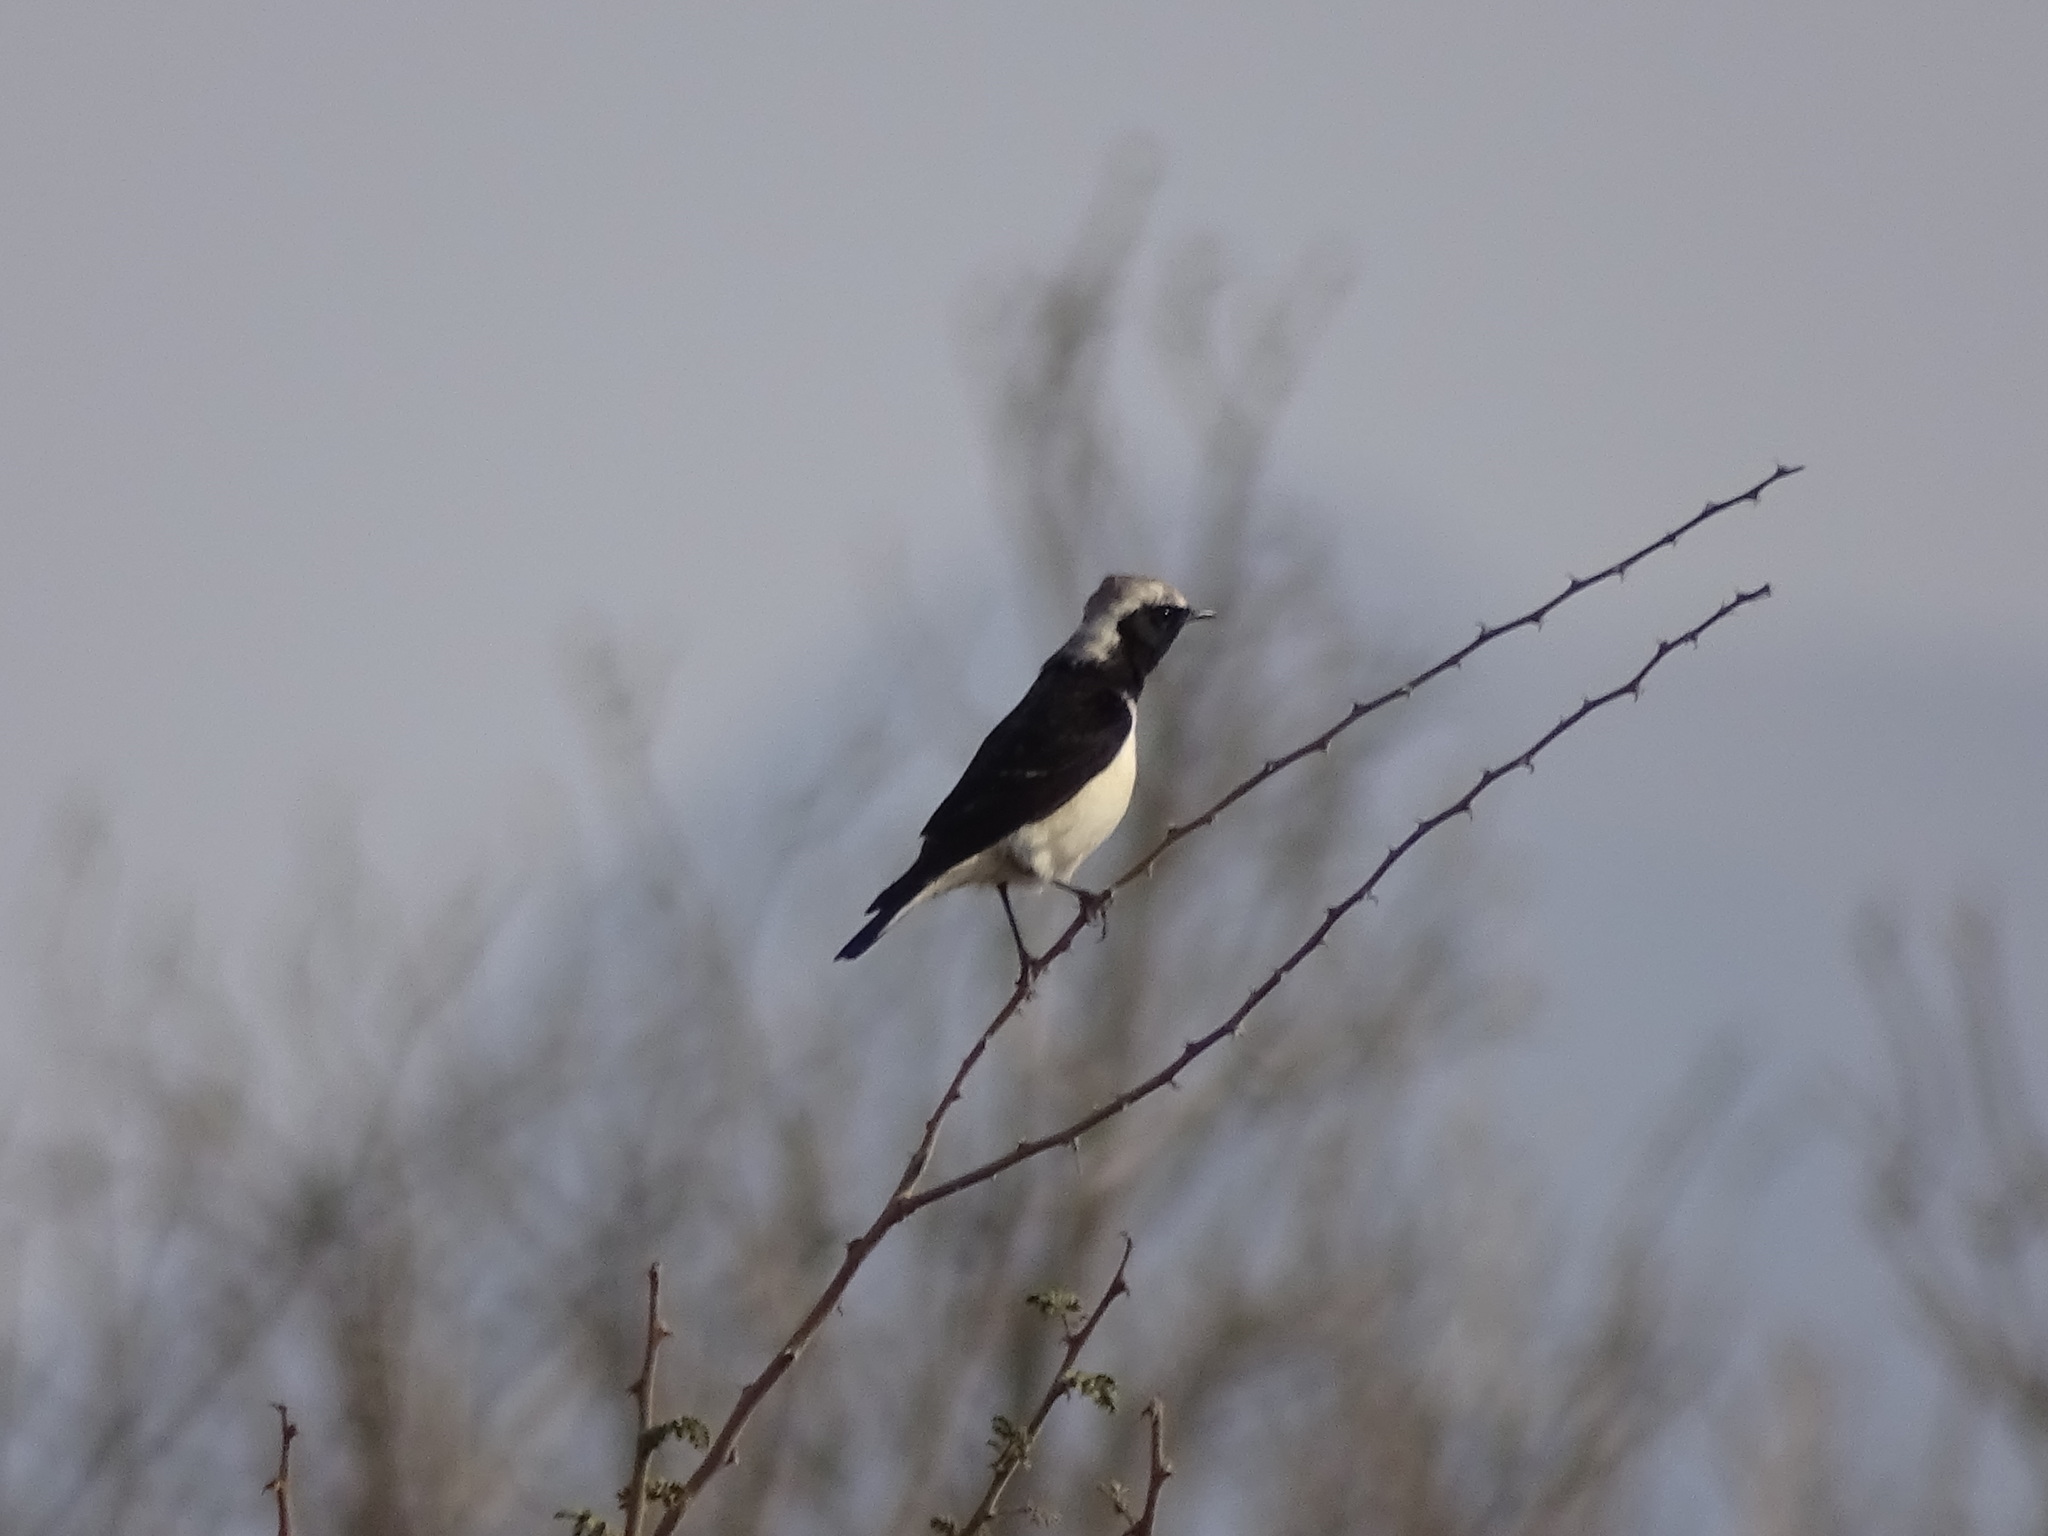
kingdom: Animalia
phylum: Chordata
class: Aves
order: Passeriformes
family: Muscicapidae
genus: Oenanthe
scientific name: Oenanthe pleschanka
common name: Pied wheatear
